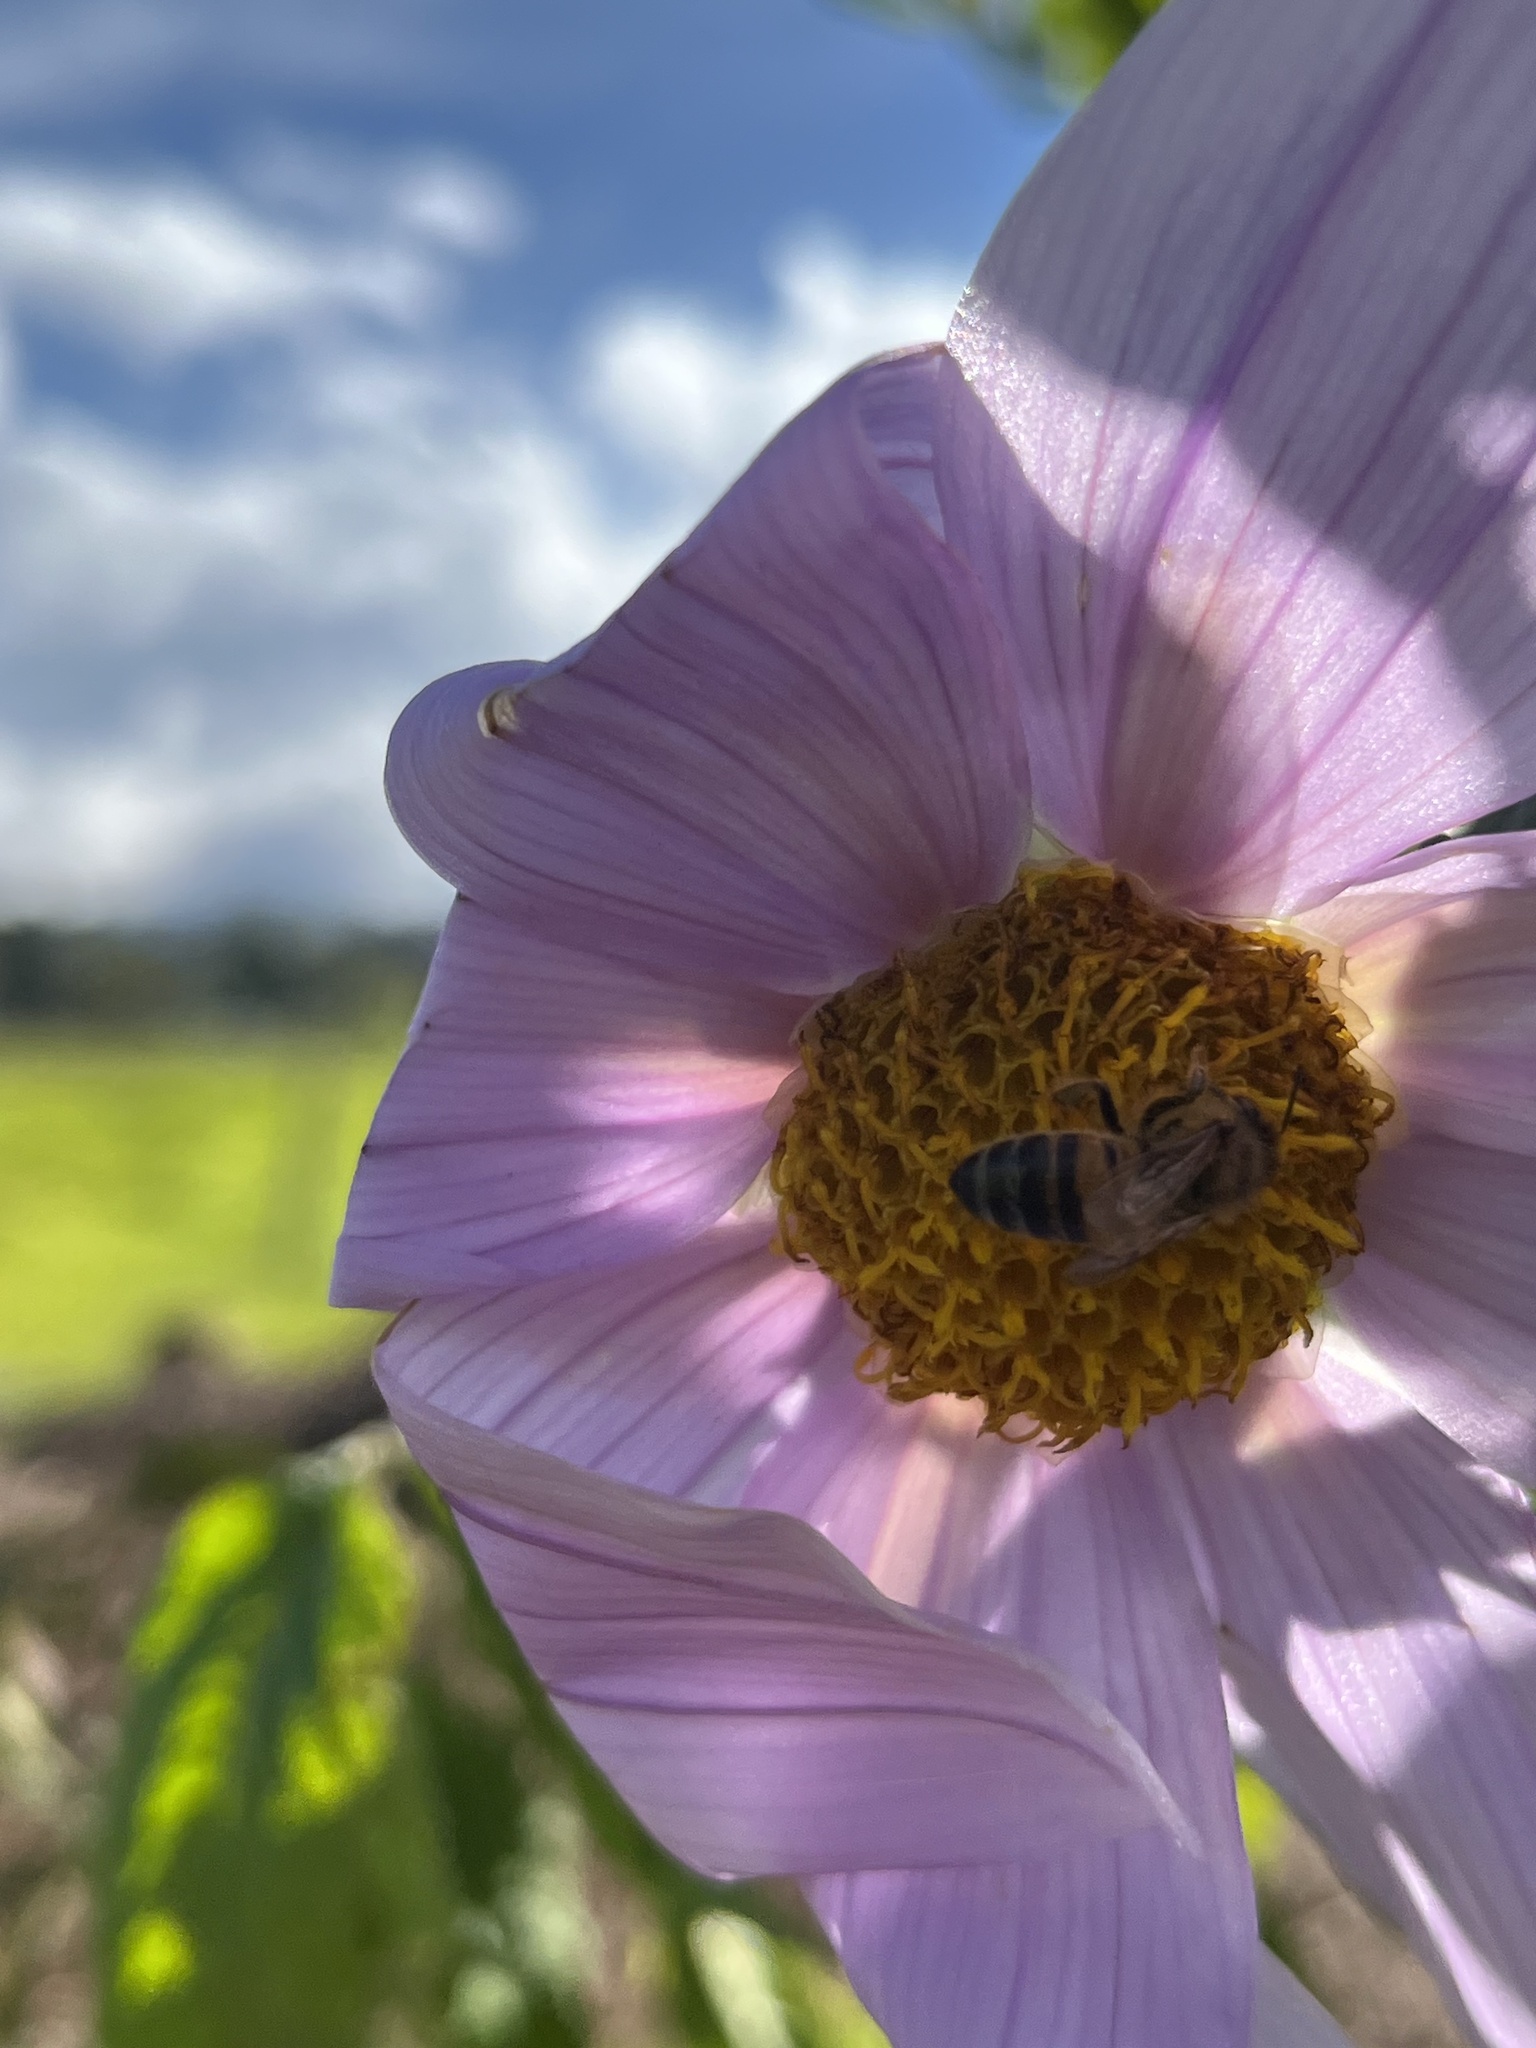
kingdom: Animalia
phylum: Arthropoda
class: Insecta
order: Hymenoptera
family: Apidae
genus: Apis
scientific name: Apis mellifera
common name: Honey bee
